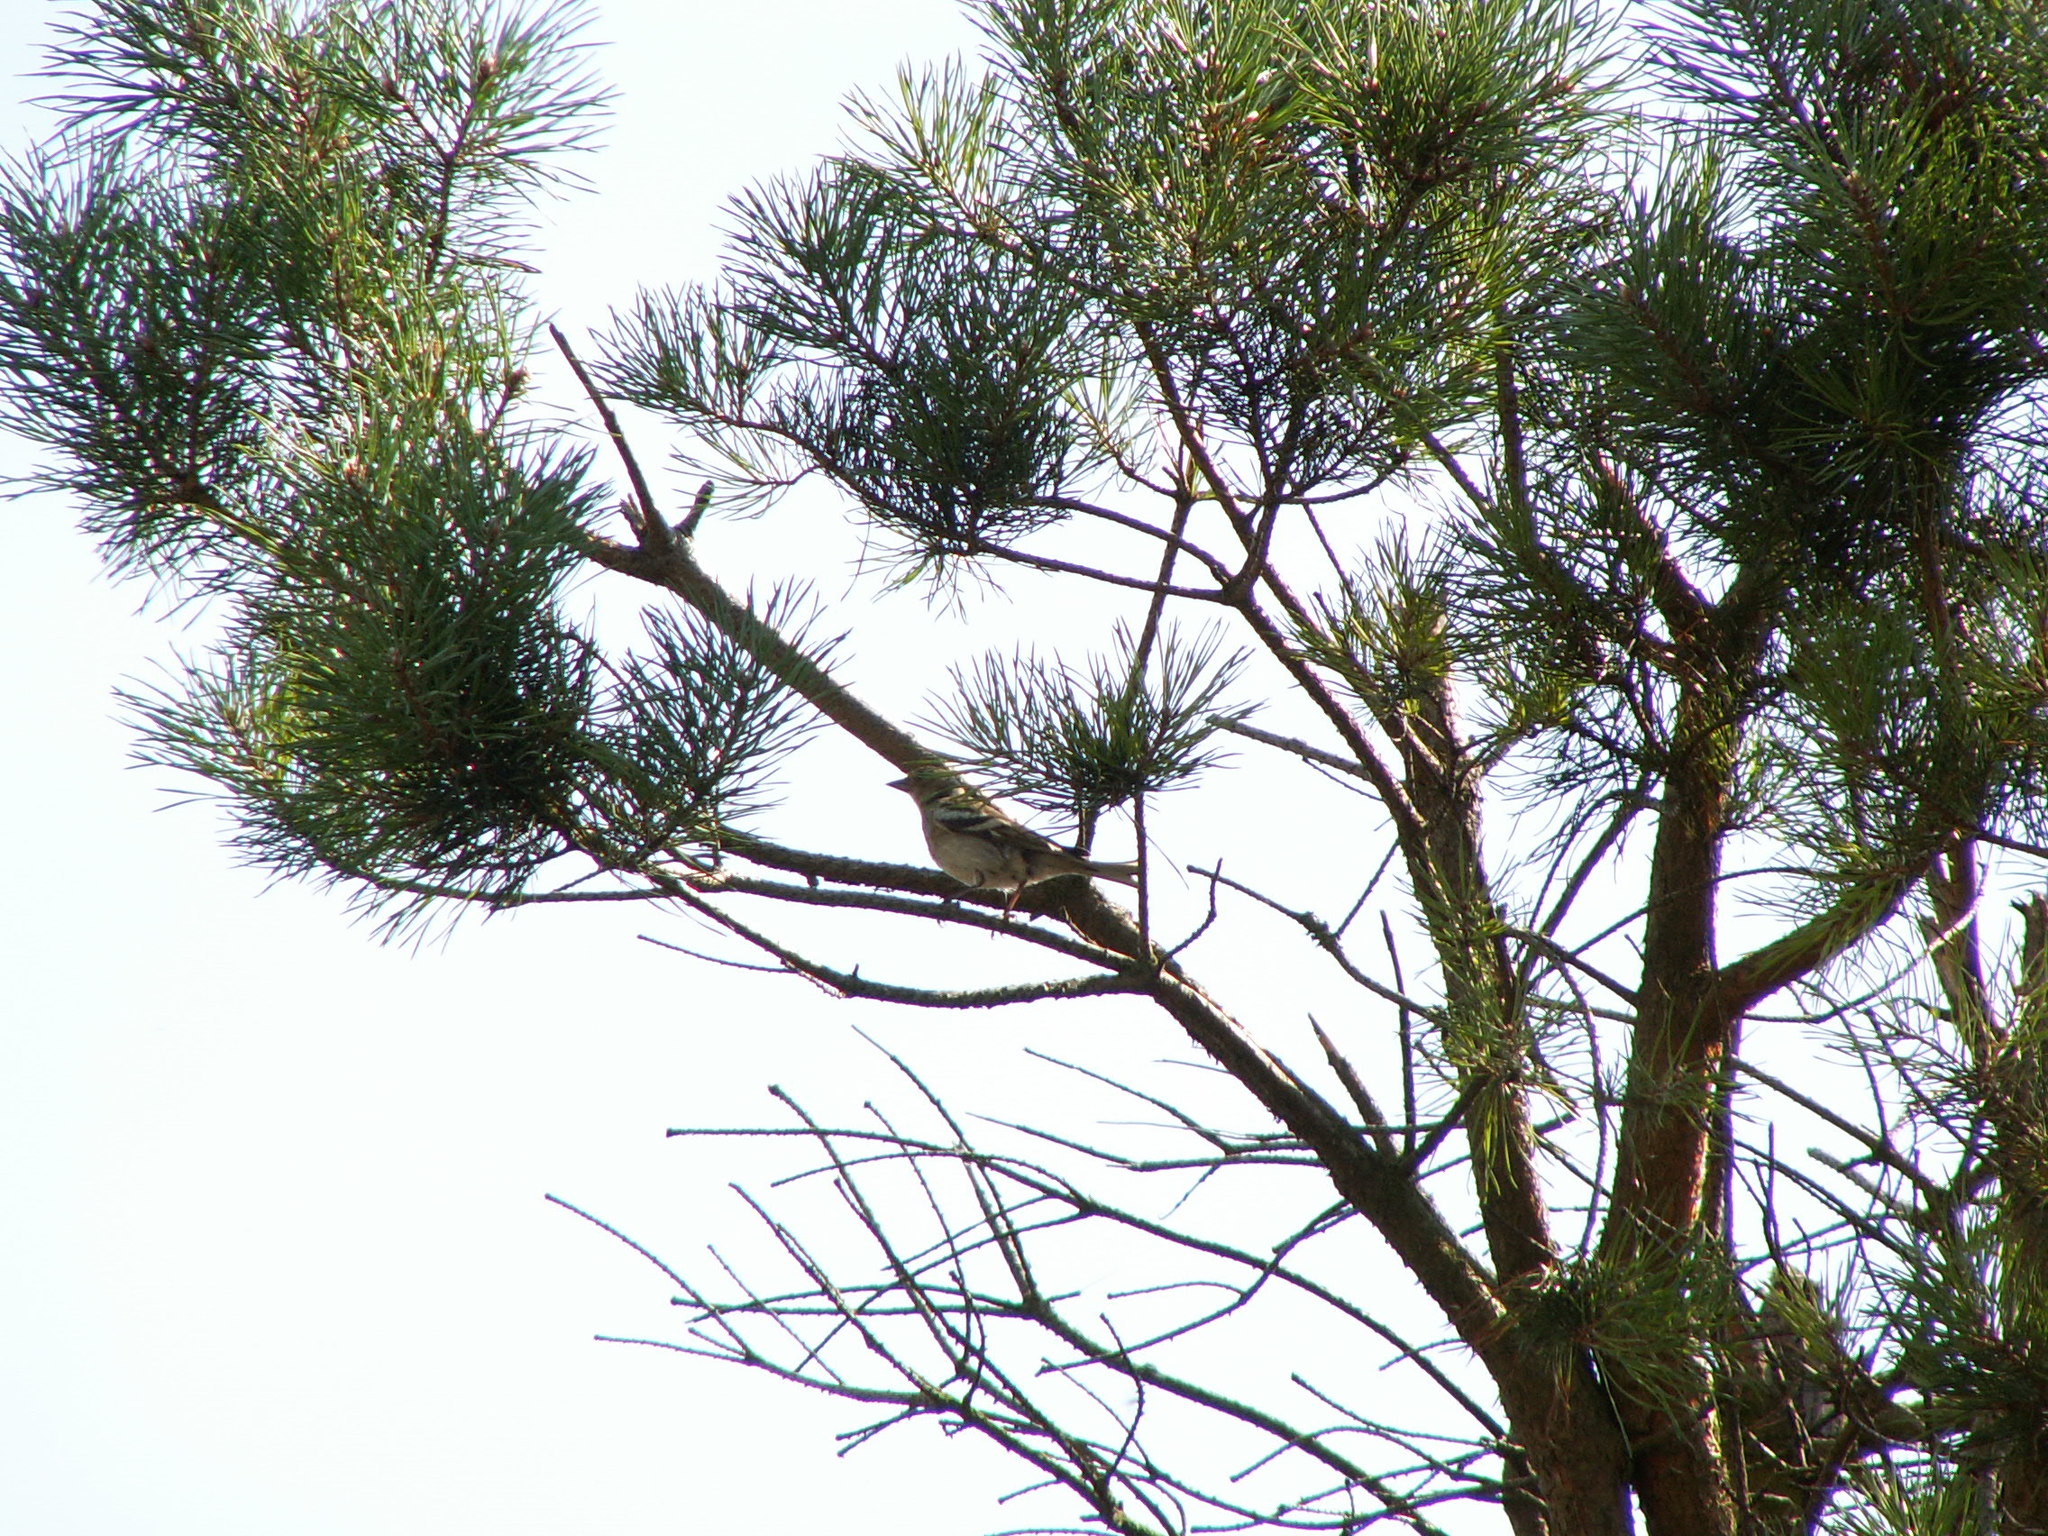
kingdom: Animalia
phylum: Chordata
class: Aves
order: Passeriformes
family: Fringillidae
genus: Fringilla
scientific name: Fringilla coelebs
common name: Common chaffinch
